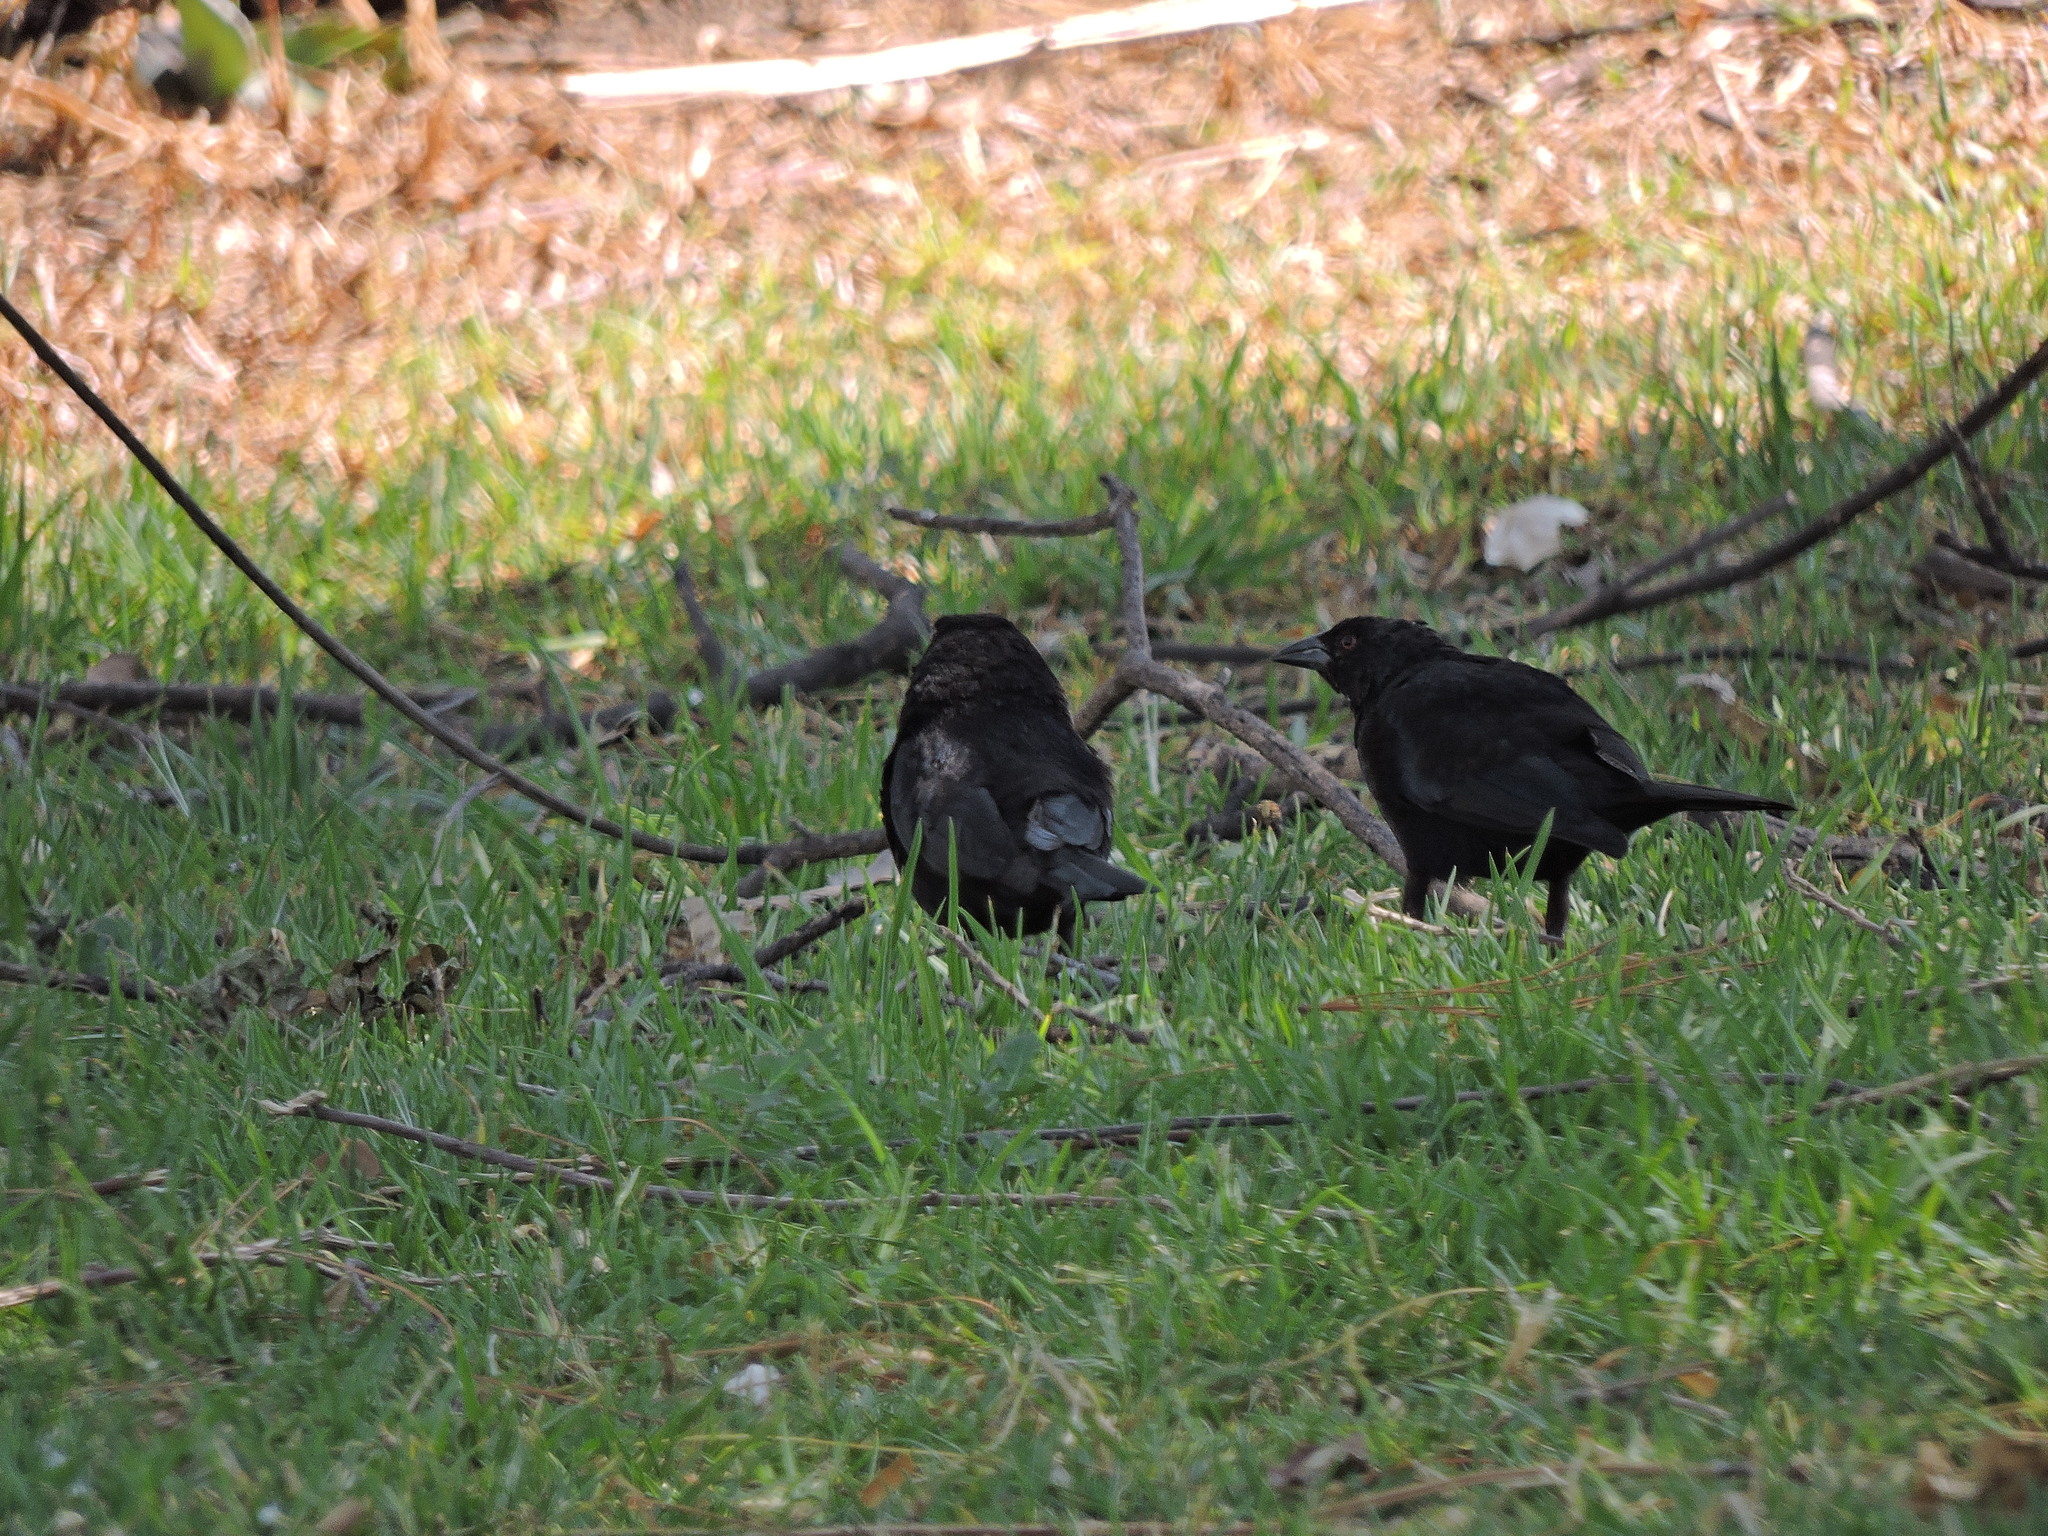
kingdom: Animalia
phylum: Chordata
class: Aves
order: Passeriformes
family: Icteridae
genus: Molothrus
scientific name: Molothrus aeneus
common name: Bronzed cowbird
